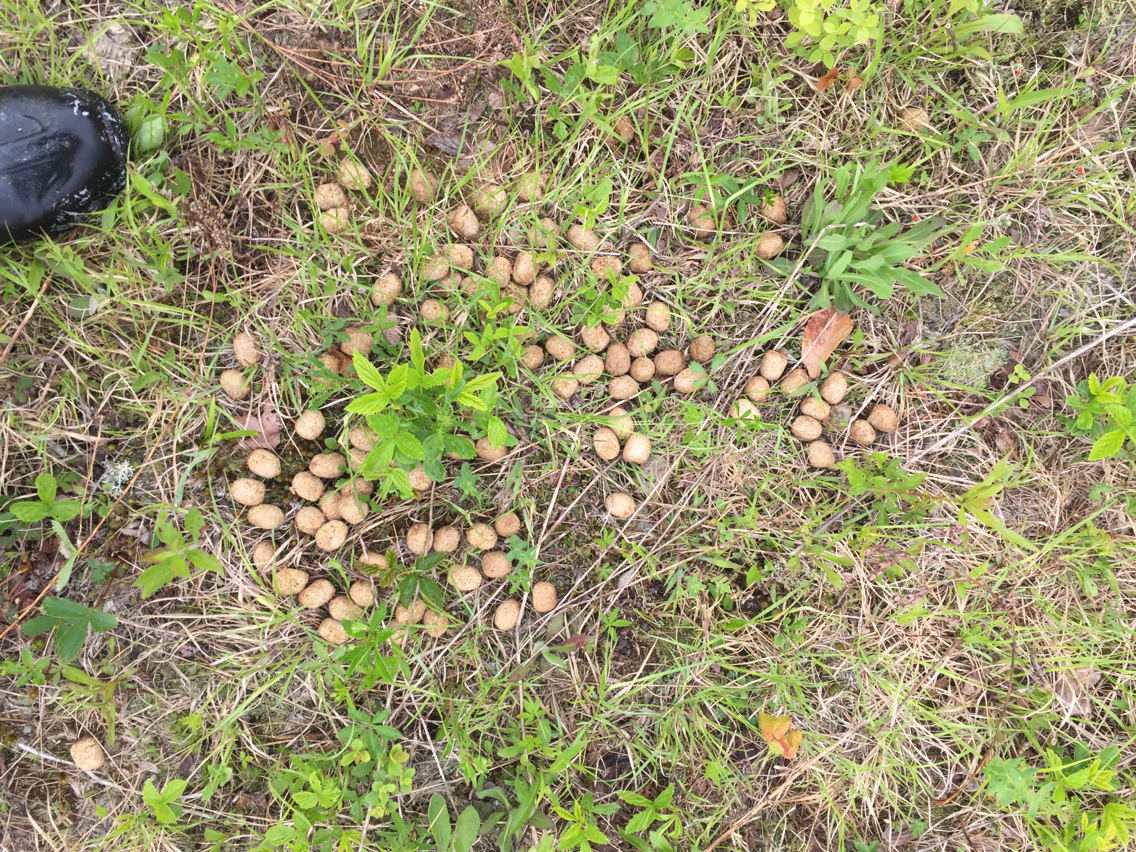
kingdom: Animalia
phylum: Chordata
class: Mammalia
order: Artiodactyla
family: Cervidae
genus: Alces
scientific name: Alces alces
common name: Moose
